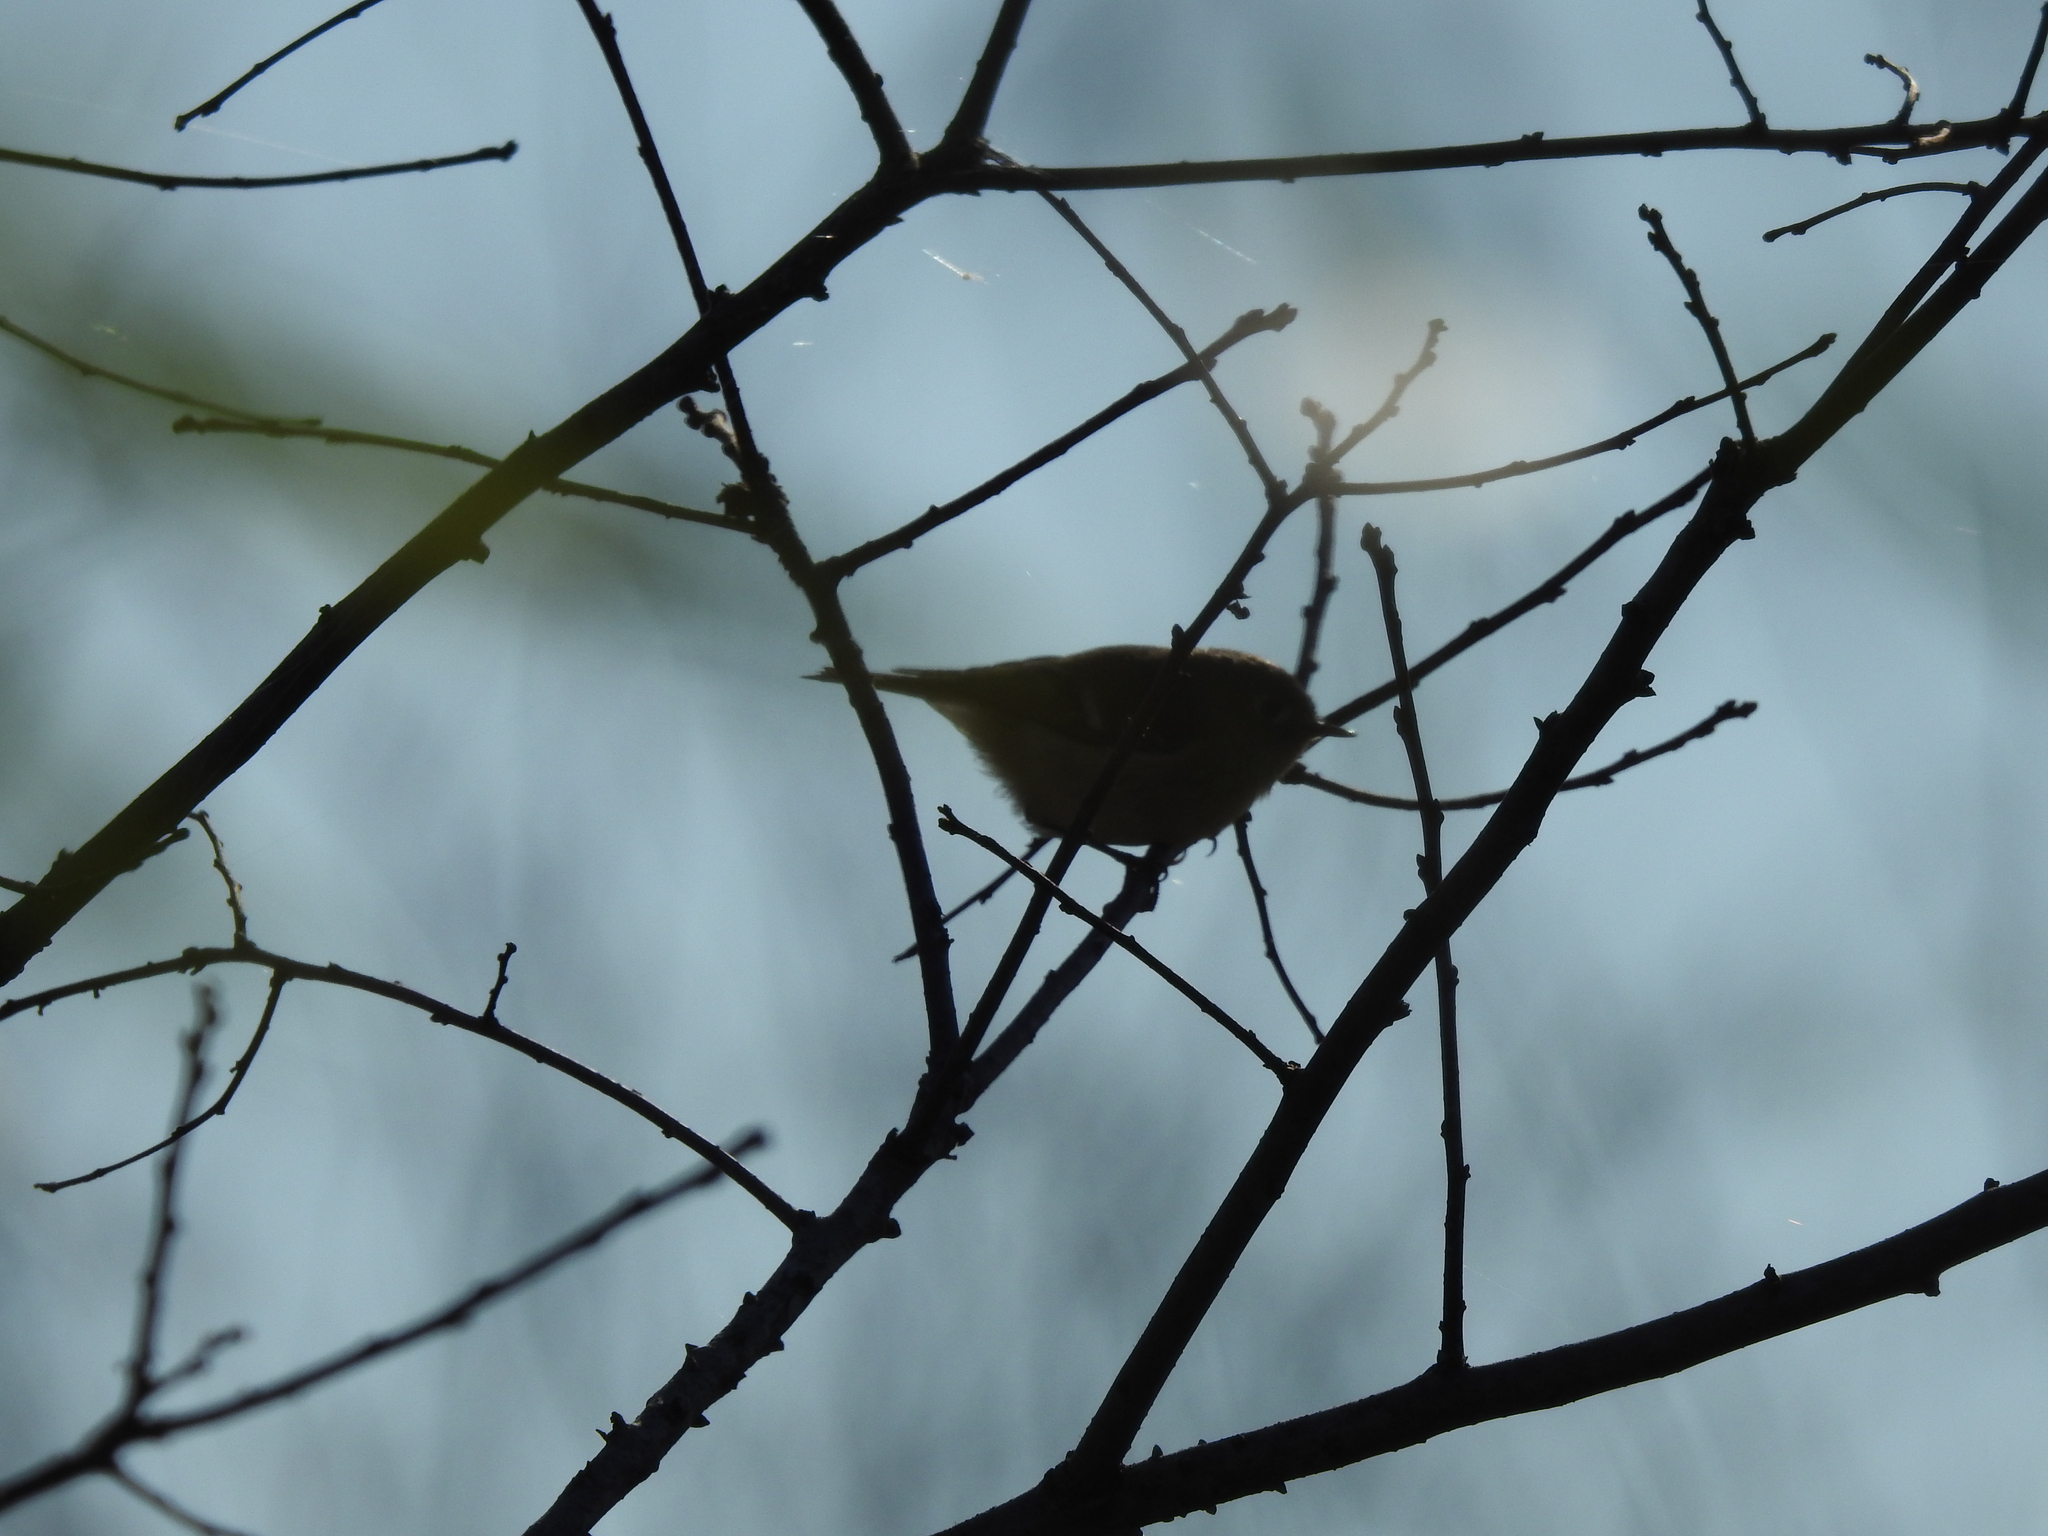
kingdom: Animalia
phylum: Chordata
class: Aves
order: Passeriformes
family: Regulidae
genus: Regulus
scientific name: Regulus calendula
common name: Ruby-crowned kinglet
